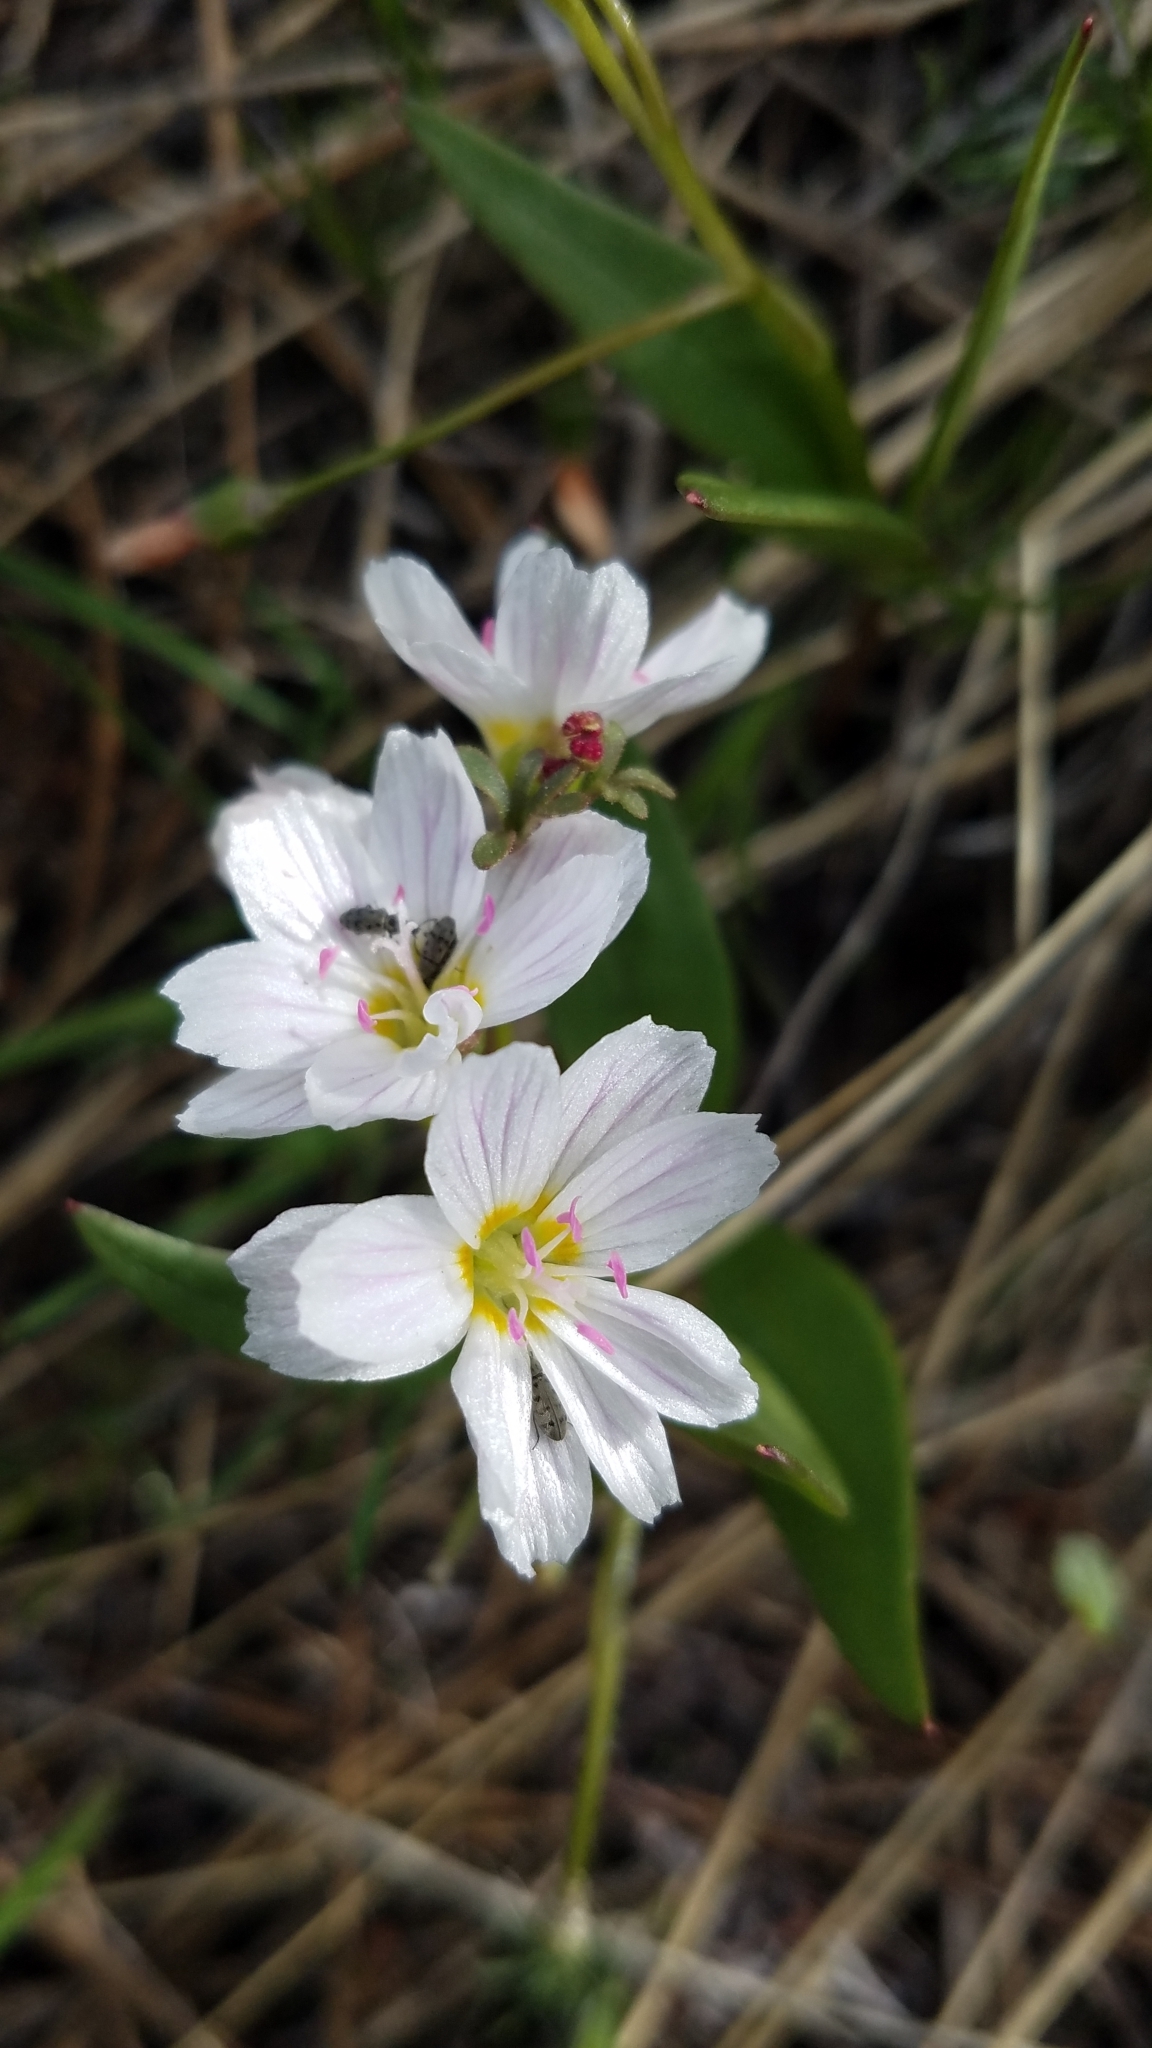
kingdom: Plantae
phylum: Tracheophyta
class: Magnoliopsida
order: Caryophyllales
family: Montiaceae
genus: Claytonia
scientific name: Claytonia lanceolata
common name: Western spring-beauty
